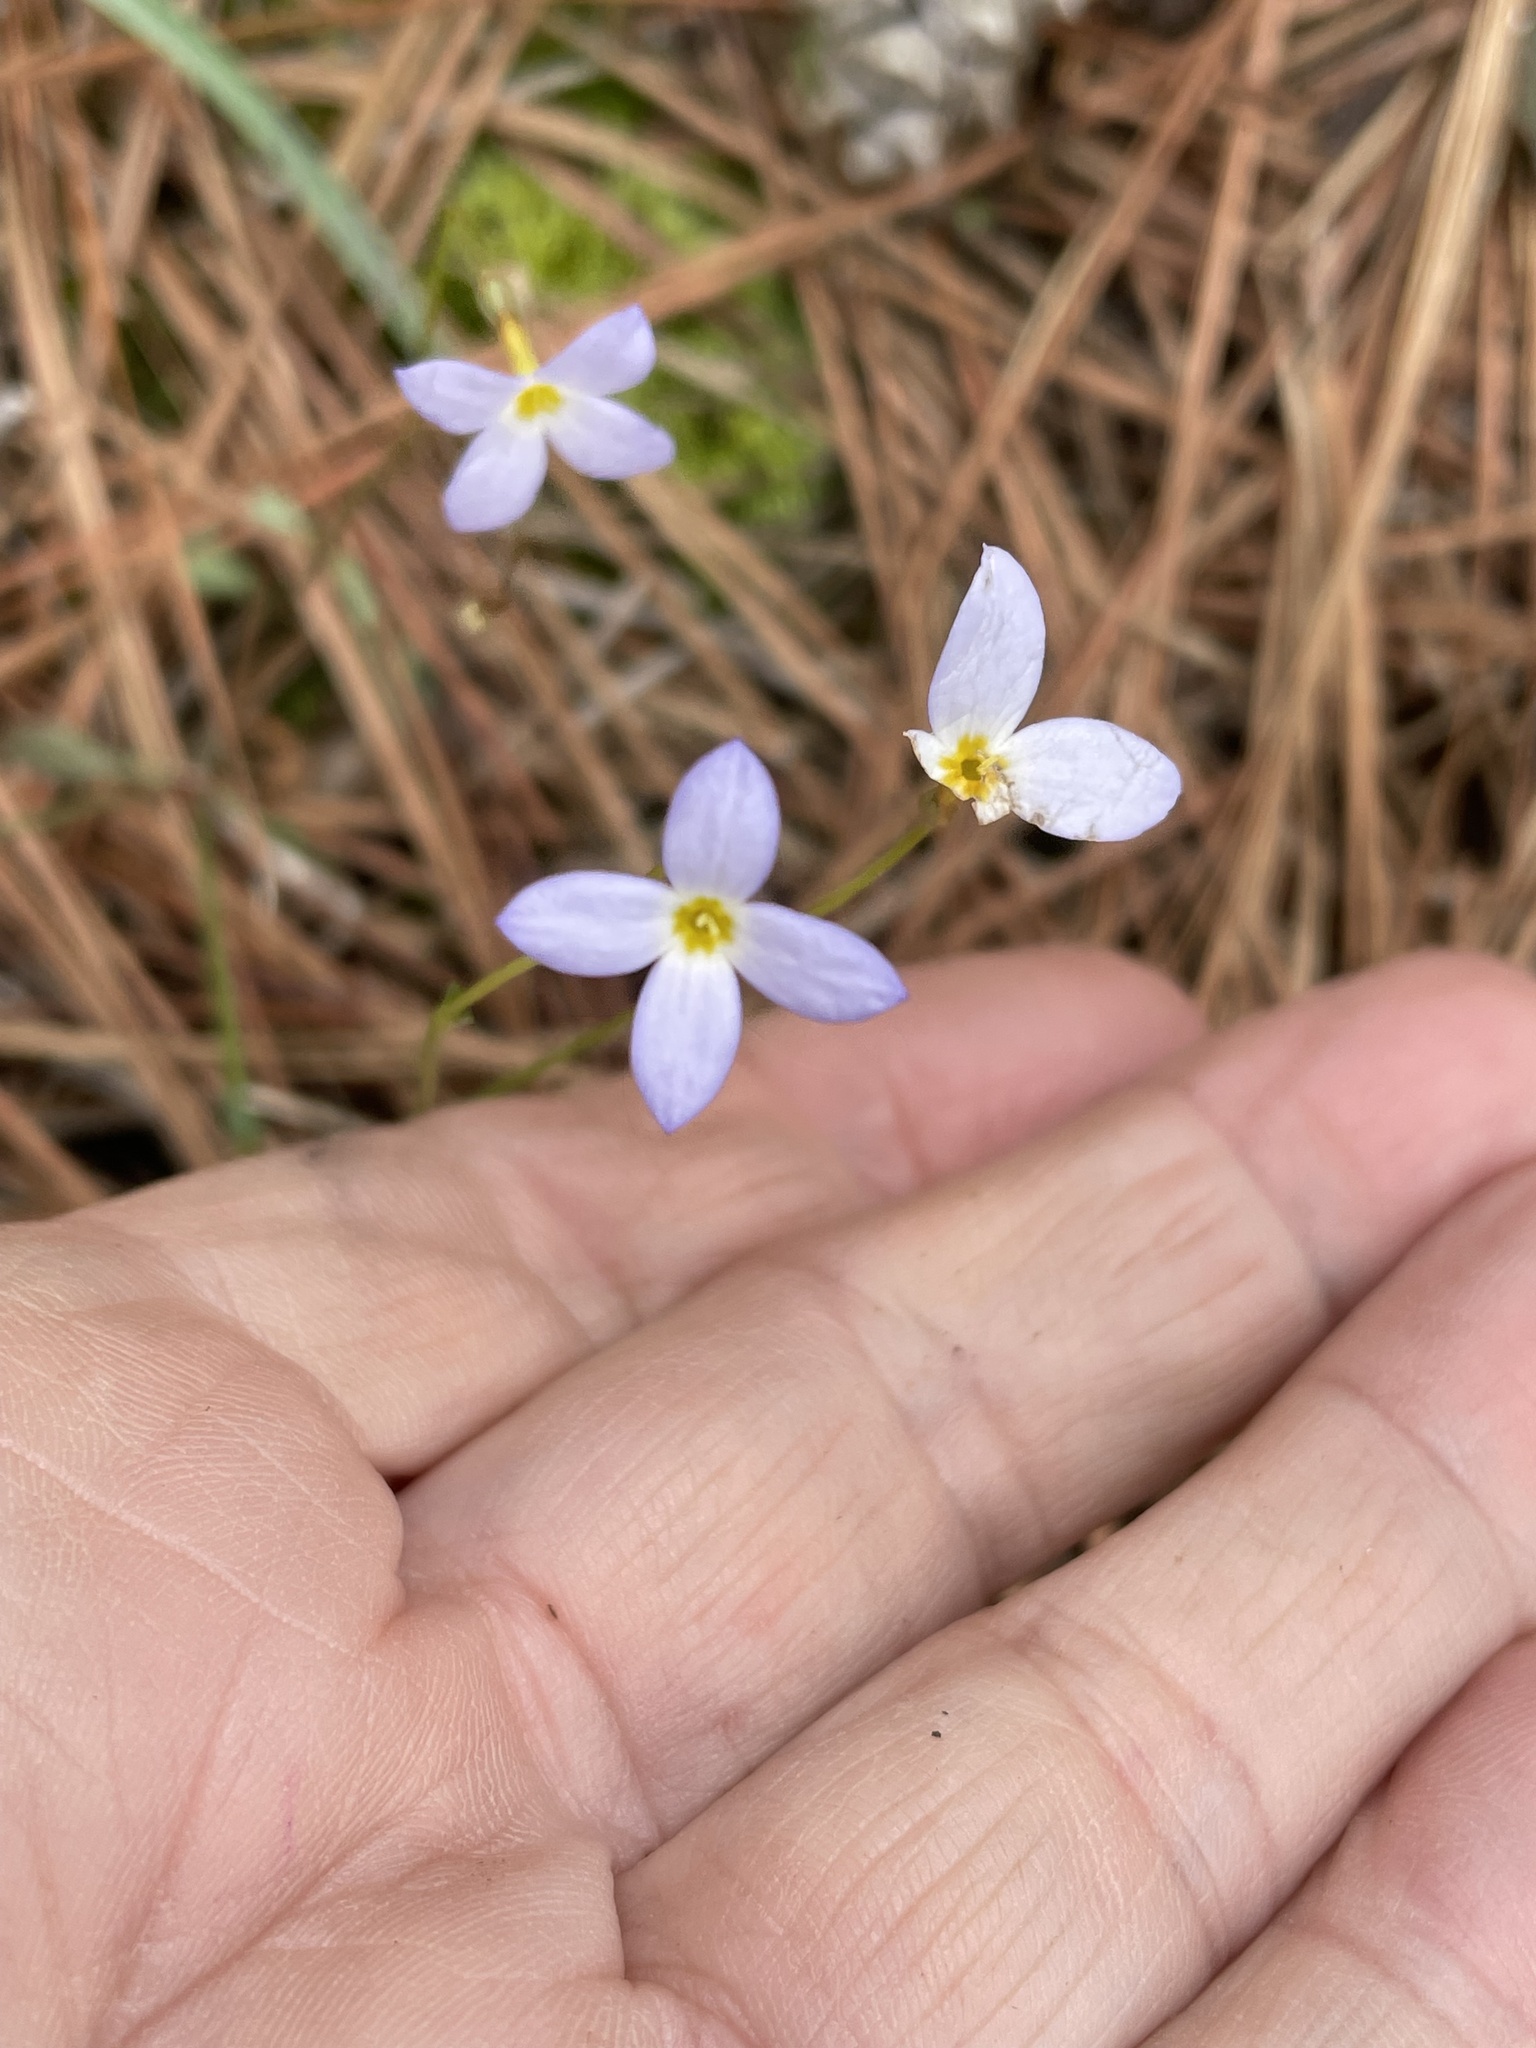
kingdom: Plantae
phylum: Tracheophyta
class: Magnoliopsida
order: Gentianales
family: Rubiaceae
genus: Houstonia
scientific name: Houstonia caerulea
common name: Bluets
